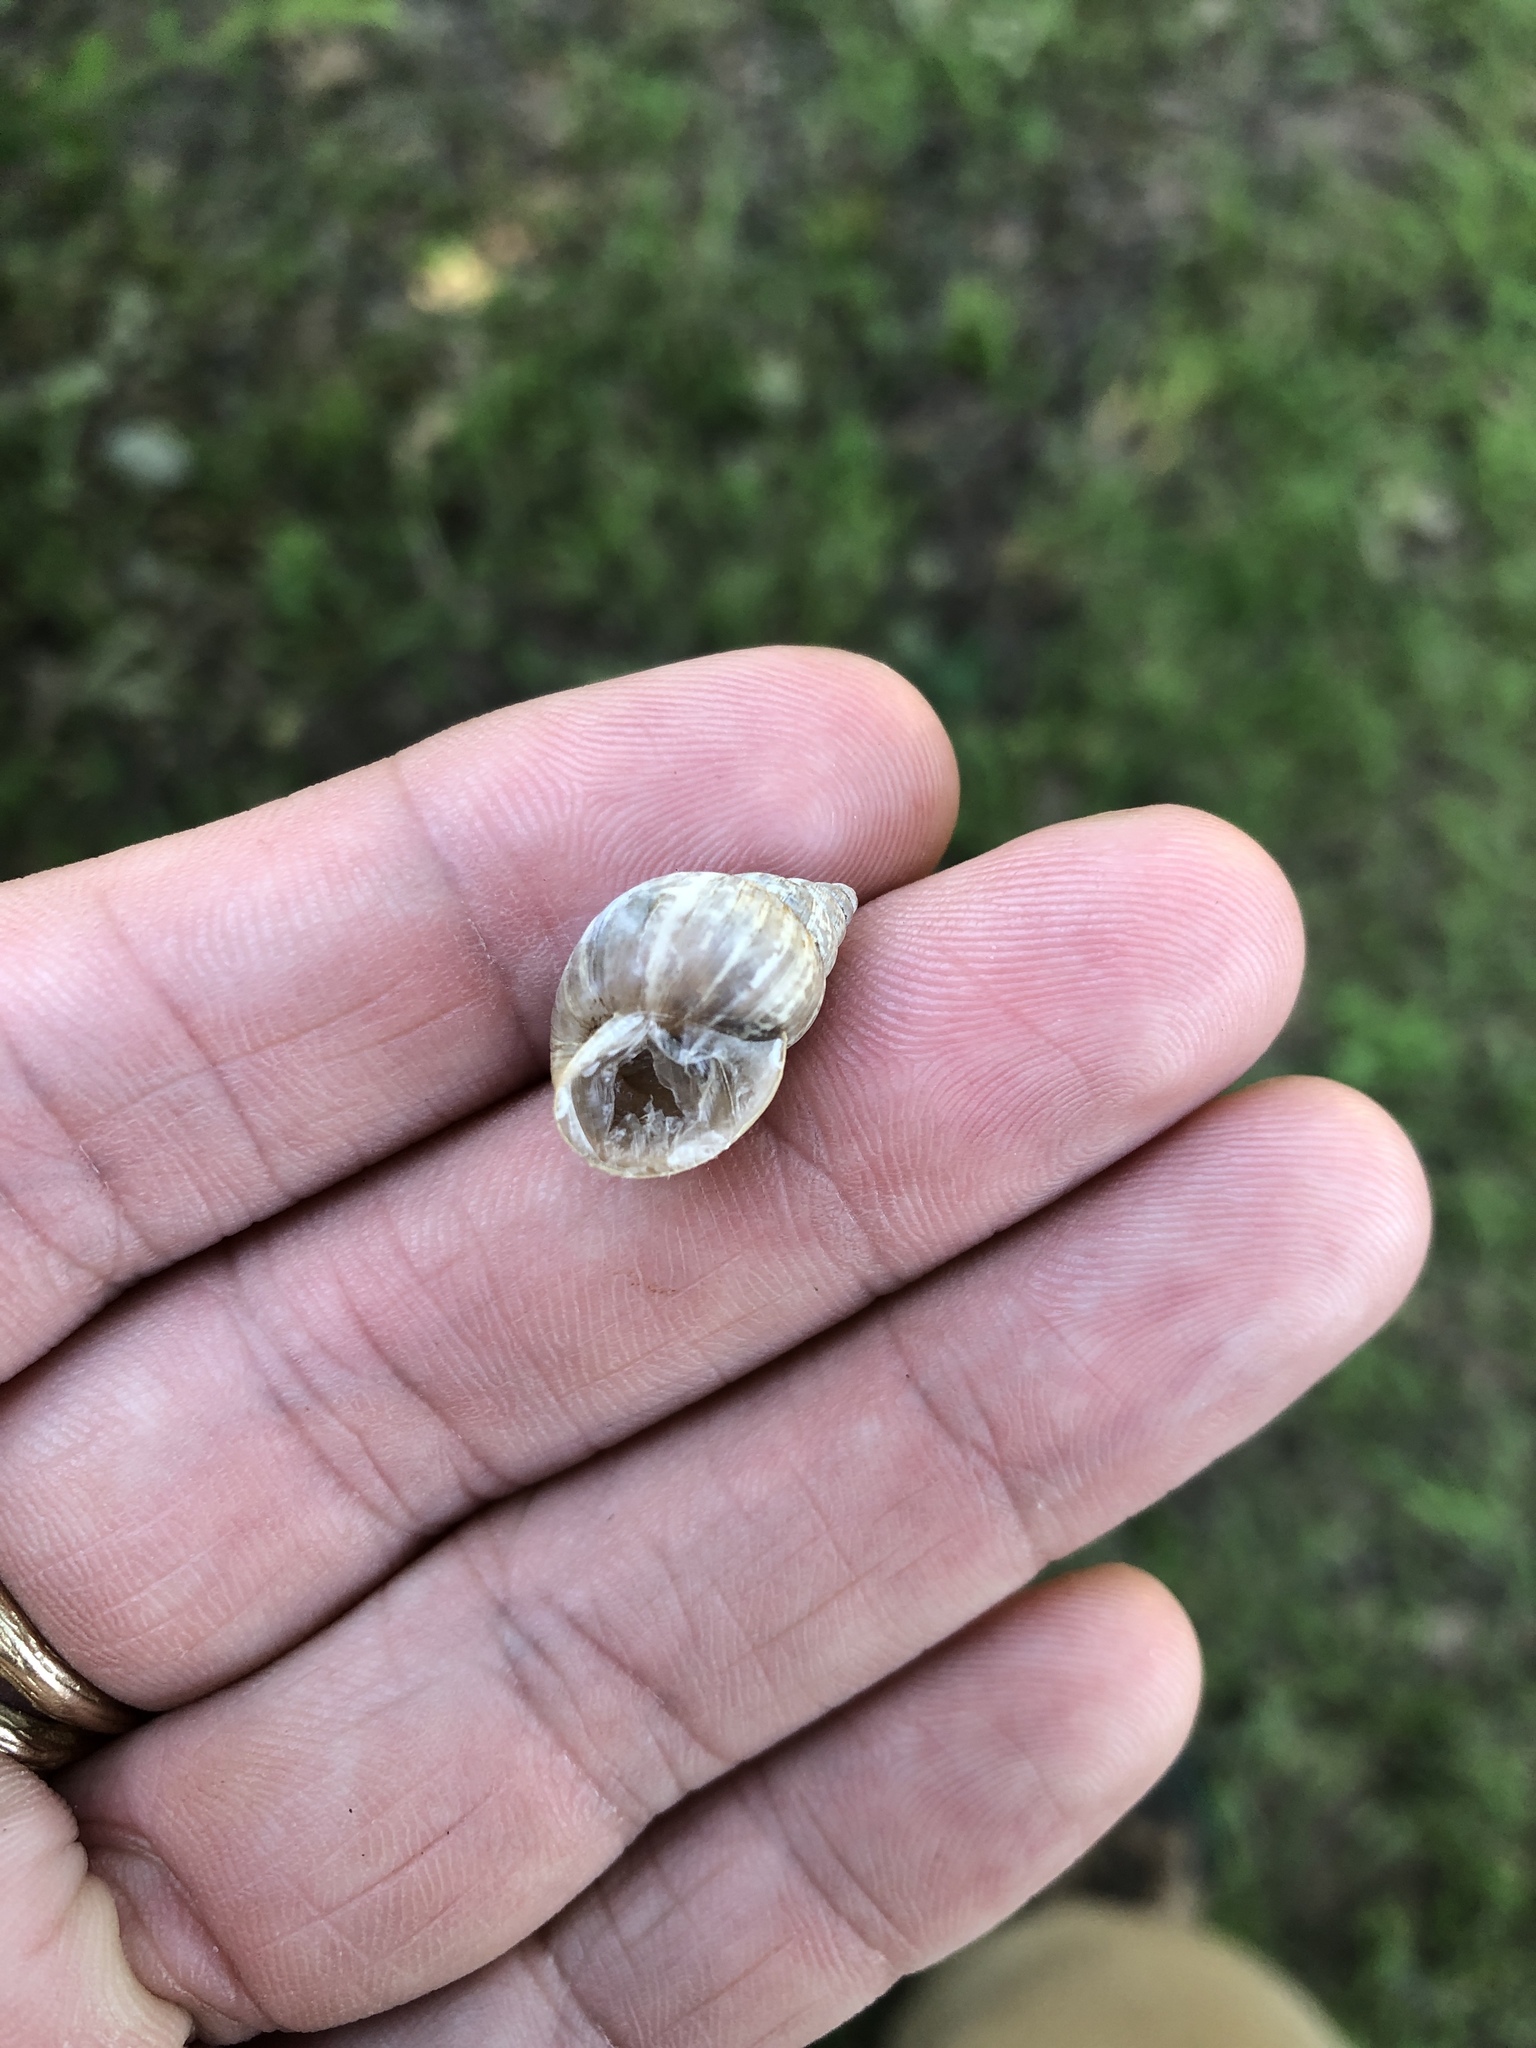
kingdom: Animalia
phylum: Mollusca
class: Gastropoda
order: Stylommatophora
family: Bulimulidae
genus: Rabdotus
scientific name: Rabdotus dealbatus
